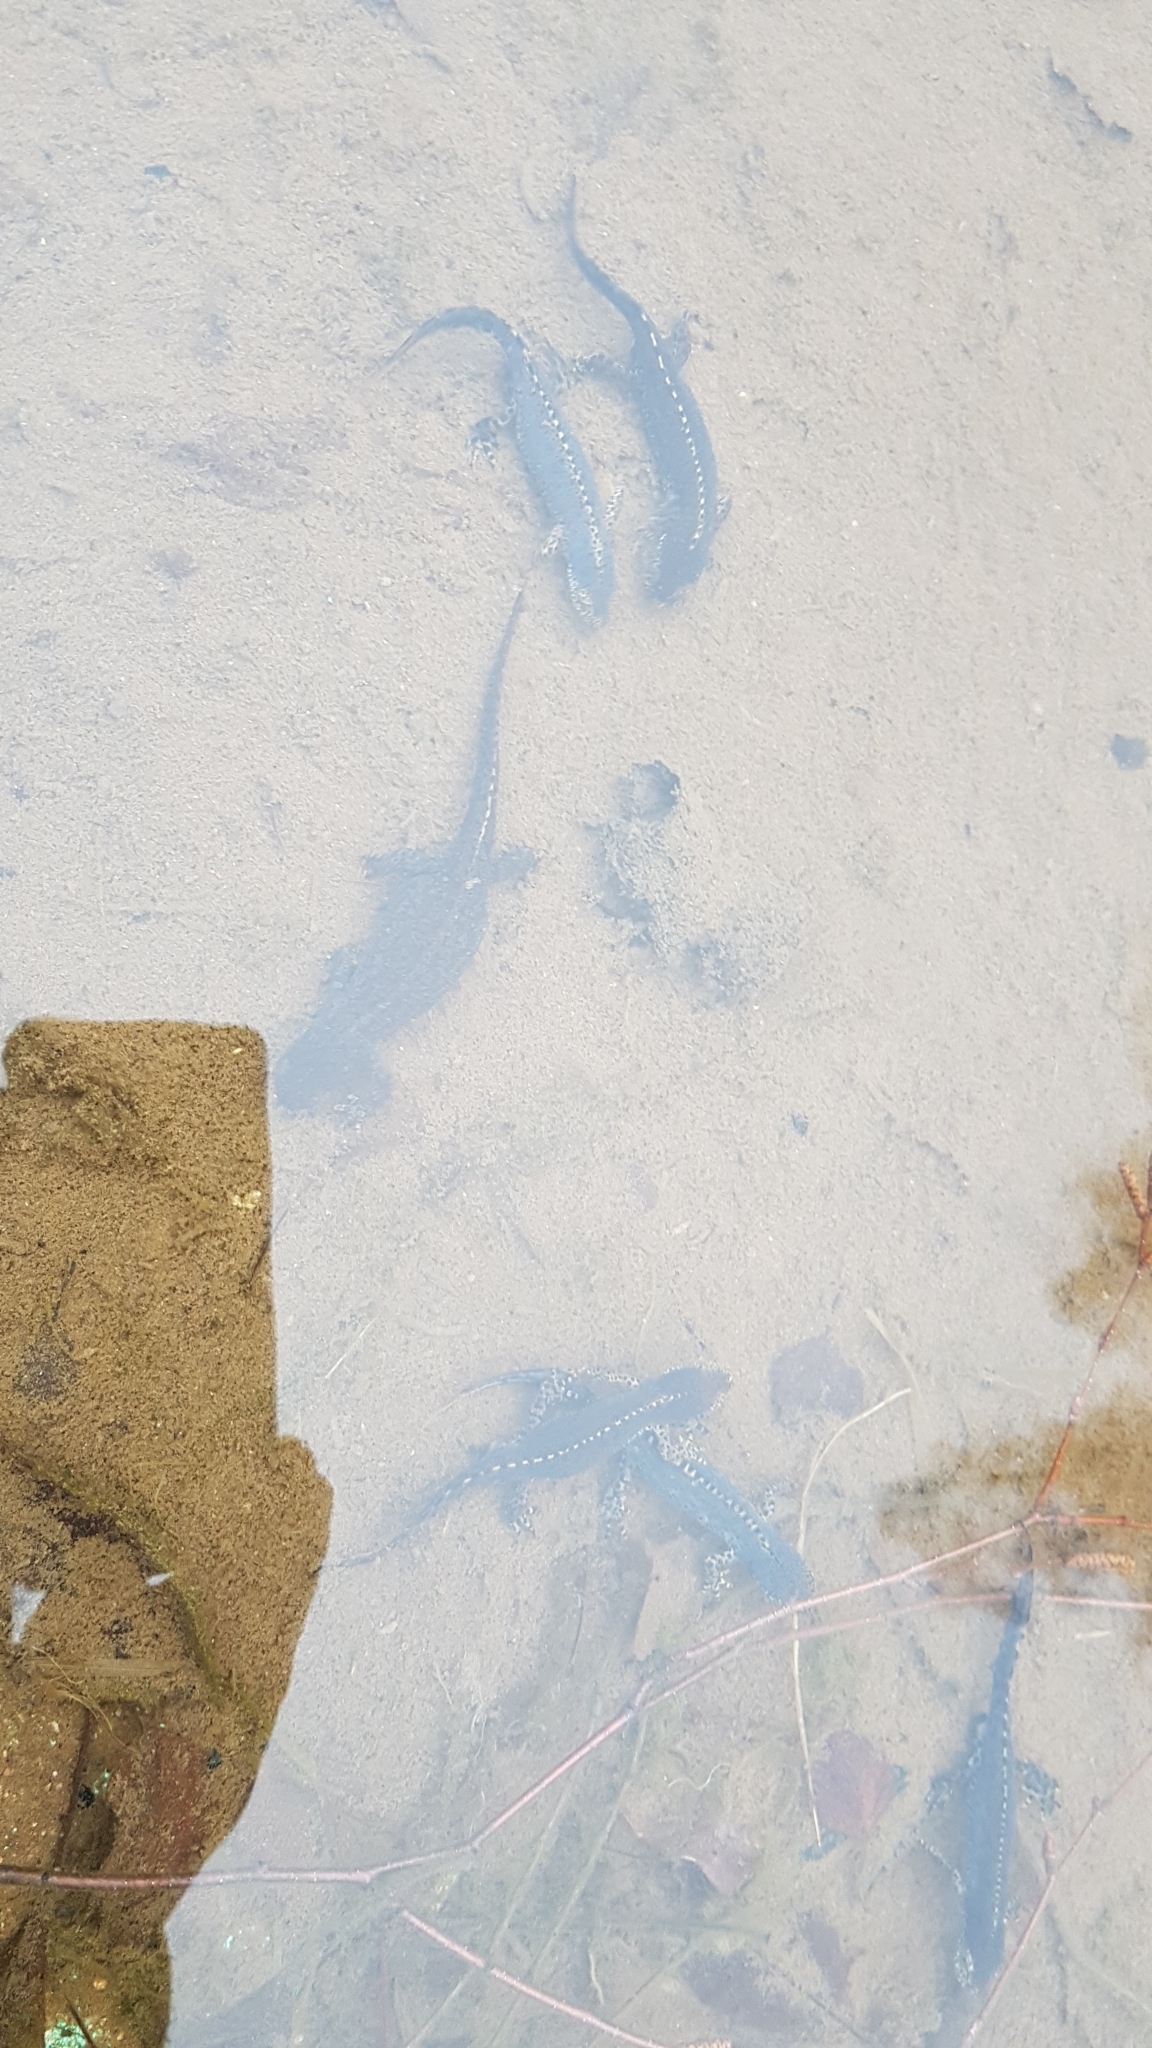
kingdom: Animalia
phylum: Chordata
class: Amphibia
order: Caudata
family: Salamandridae
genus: Ichthyosaura
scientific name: Ichthyosaura alpestris
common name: Alpine newt
